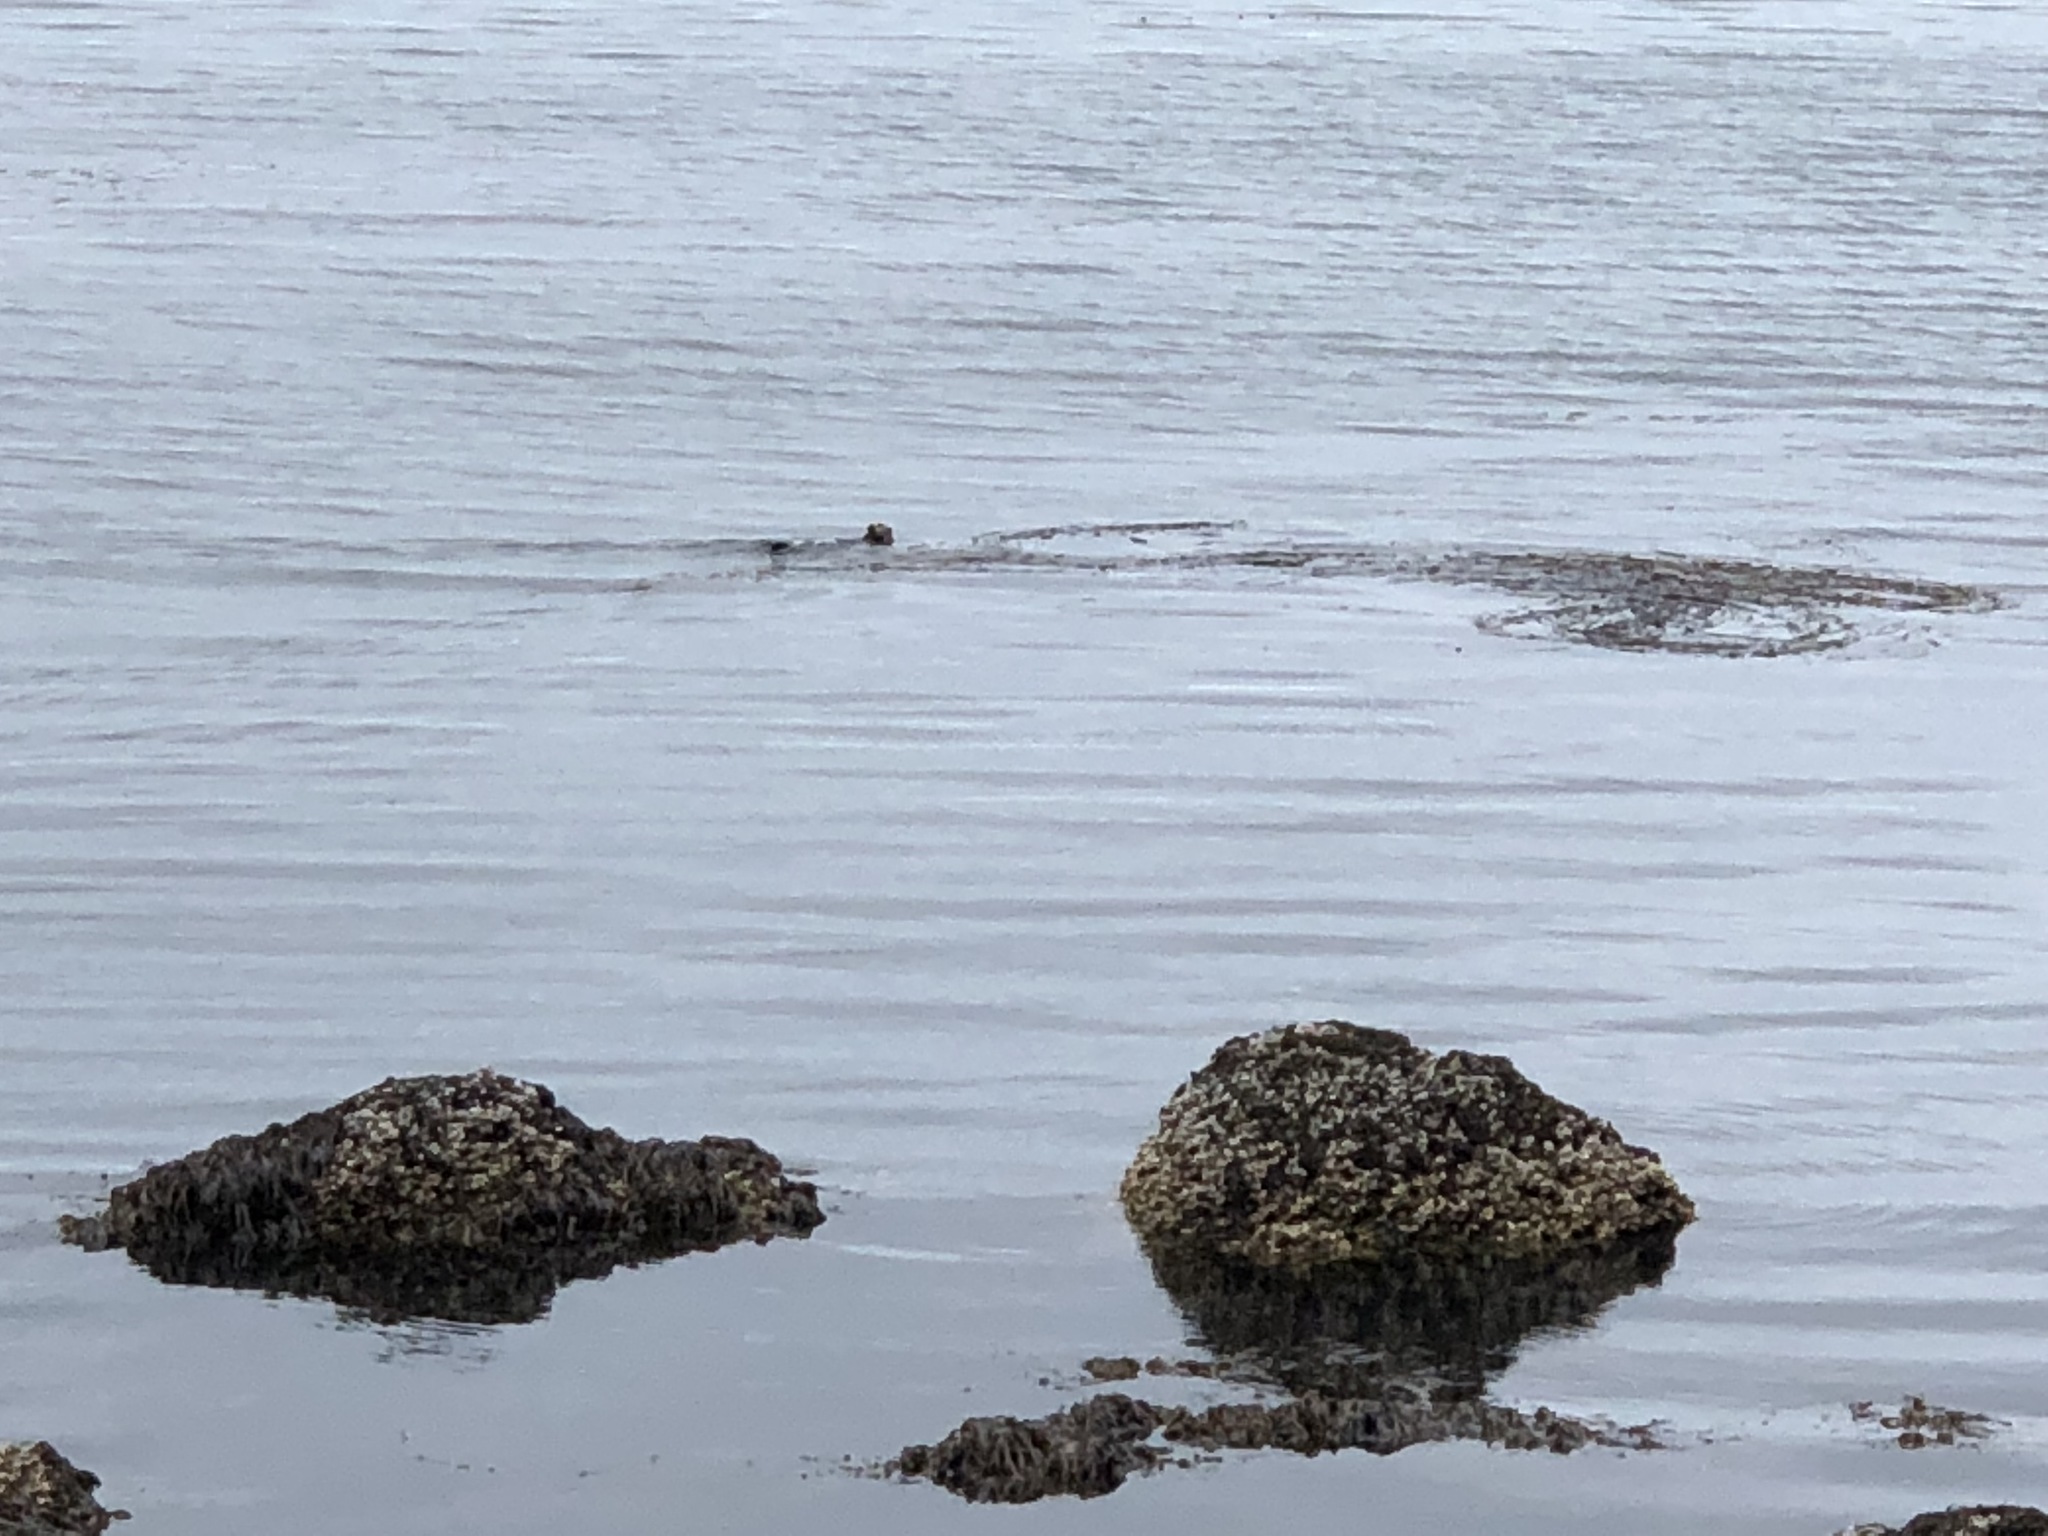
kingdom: Animalia
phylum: Chordata
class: Mammalia
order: Carnivora
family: Mustelidae
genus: Enhydra
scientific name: Enhydra lutris
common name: Sea otter
